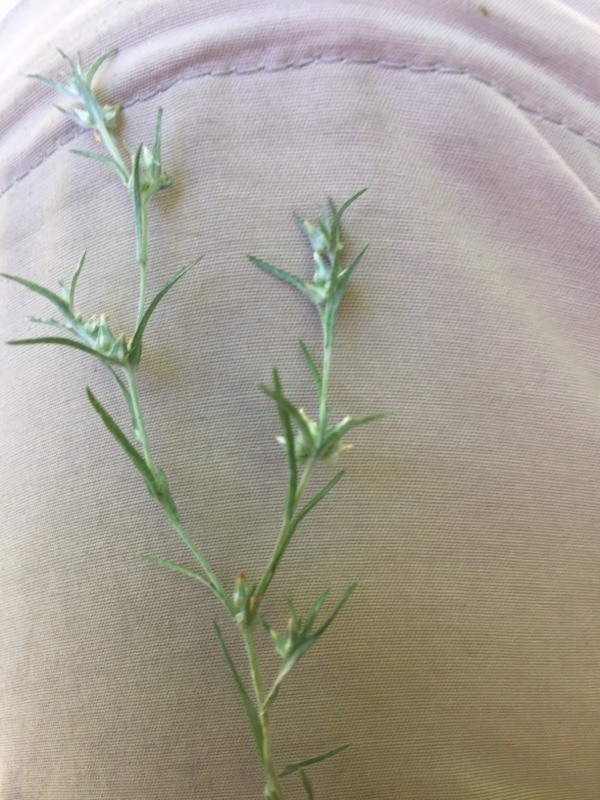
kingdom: Plantae
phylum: Tracheophyta
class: Magnoliopsida
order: Asterales
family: Asteraceae
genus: Logfia
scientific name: Logfia gallica
